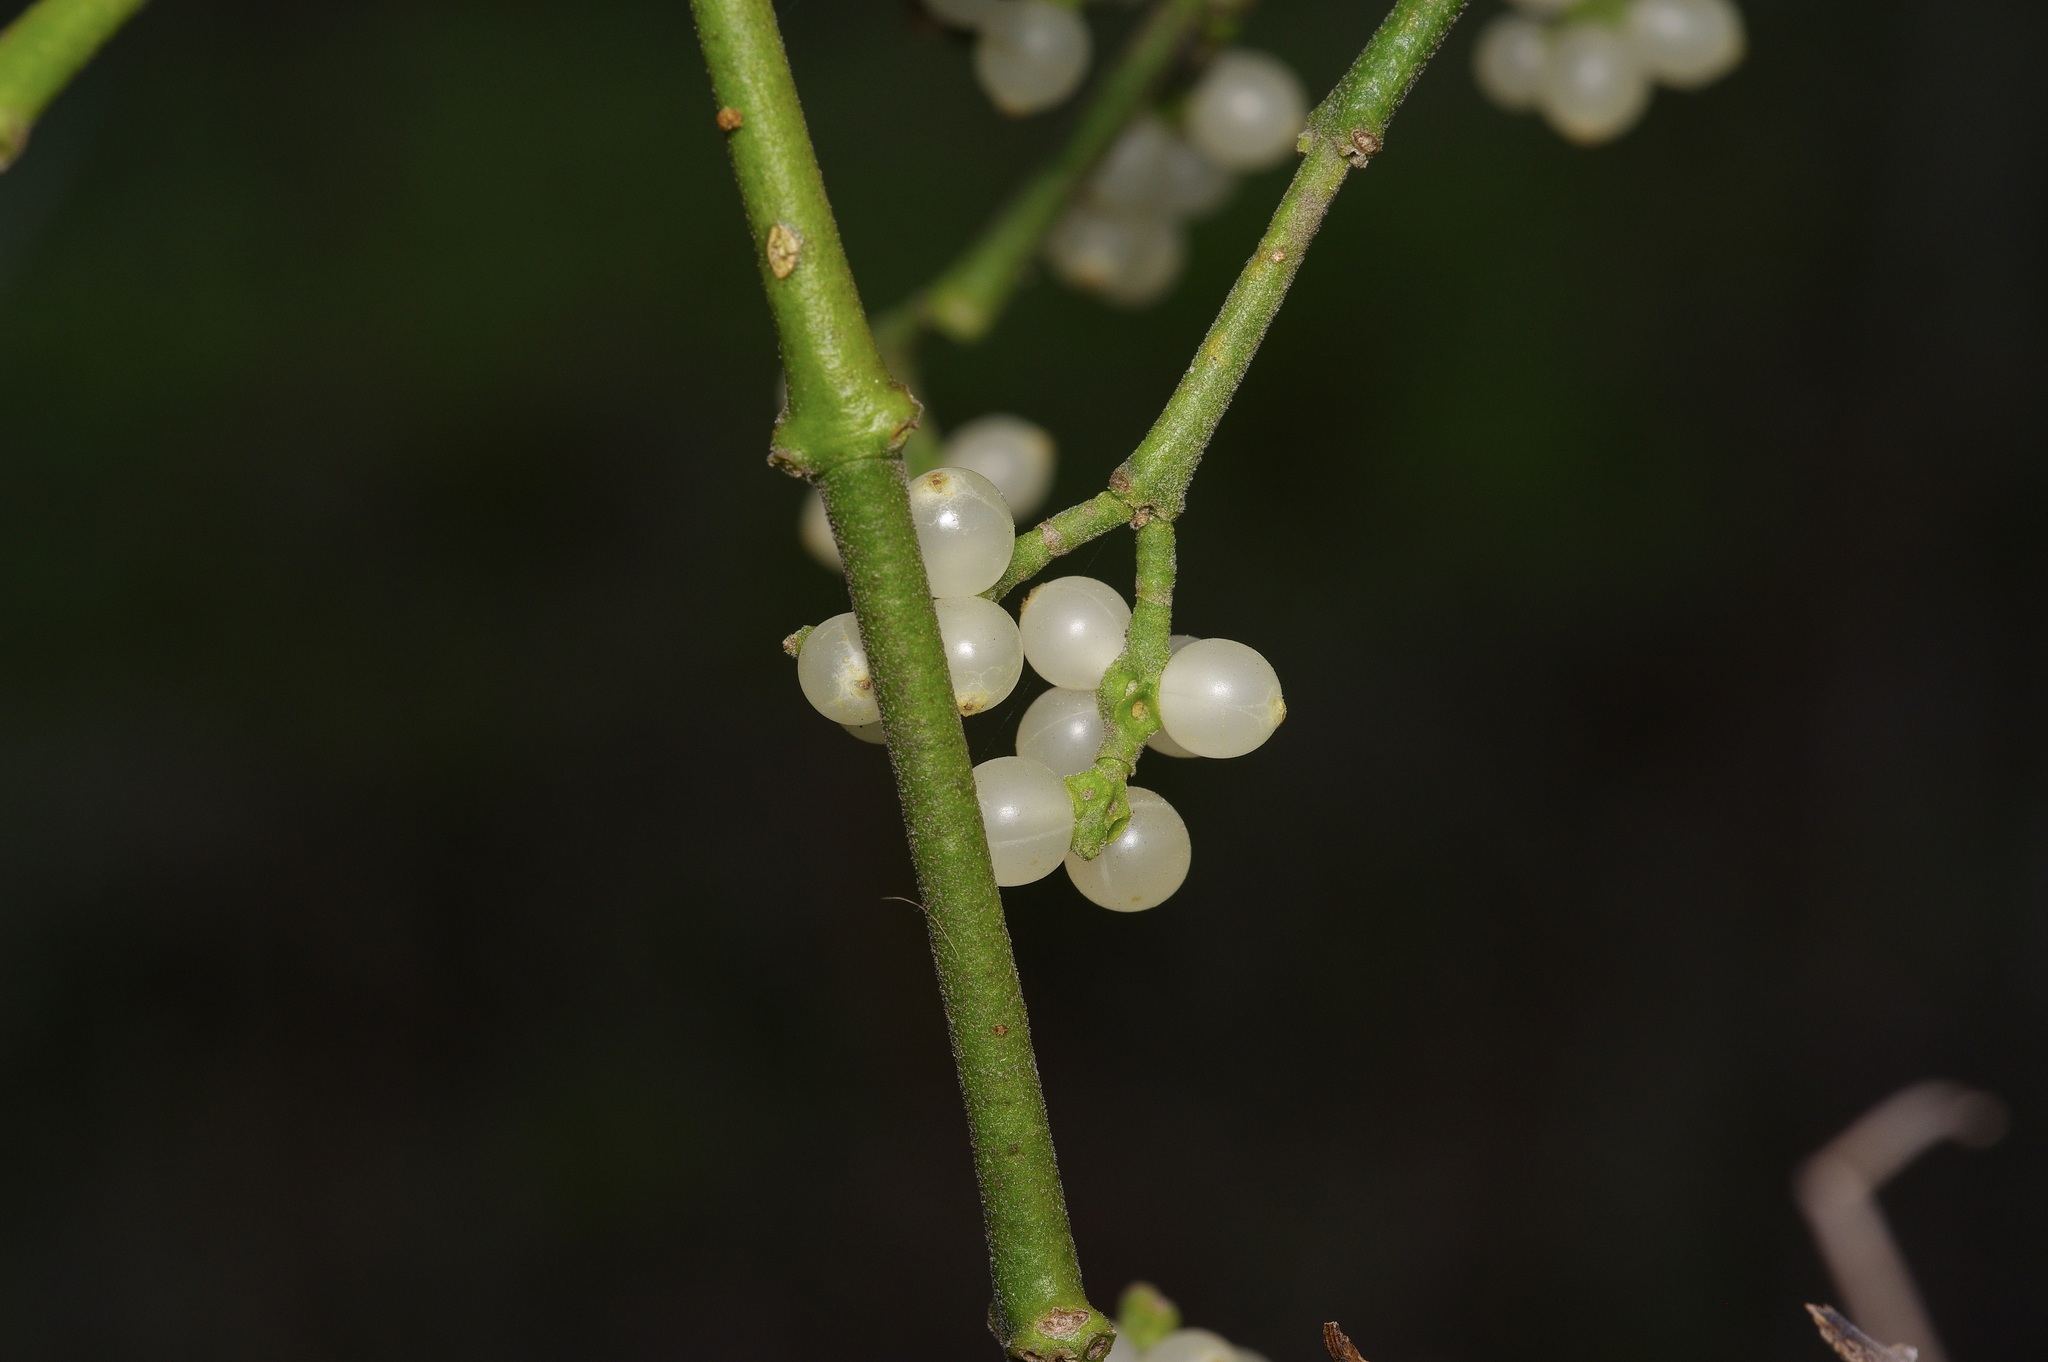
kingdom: Plantae
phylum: Tracheophyta
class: Magnoliopsida
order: Santalales
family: Viscaceae
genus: Phoradendron
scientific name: Phoradendron leucarpum
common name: Pacific mistletoe
